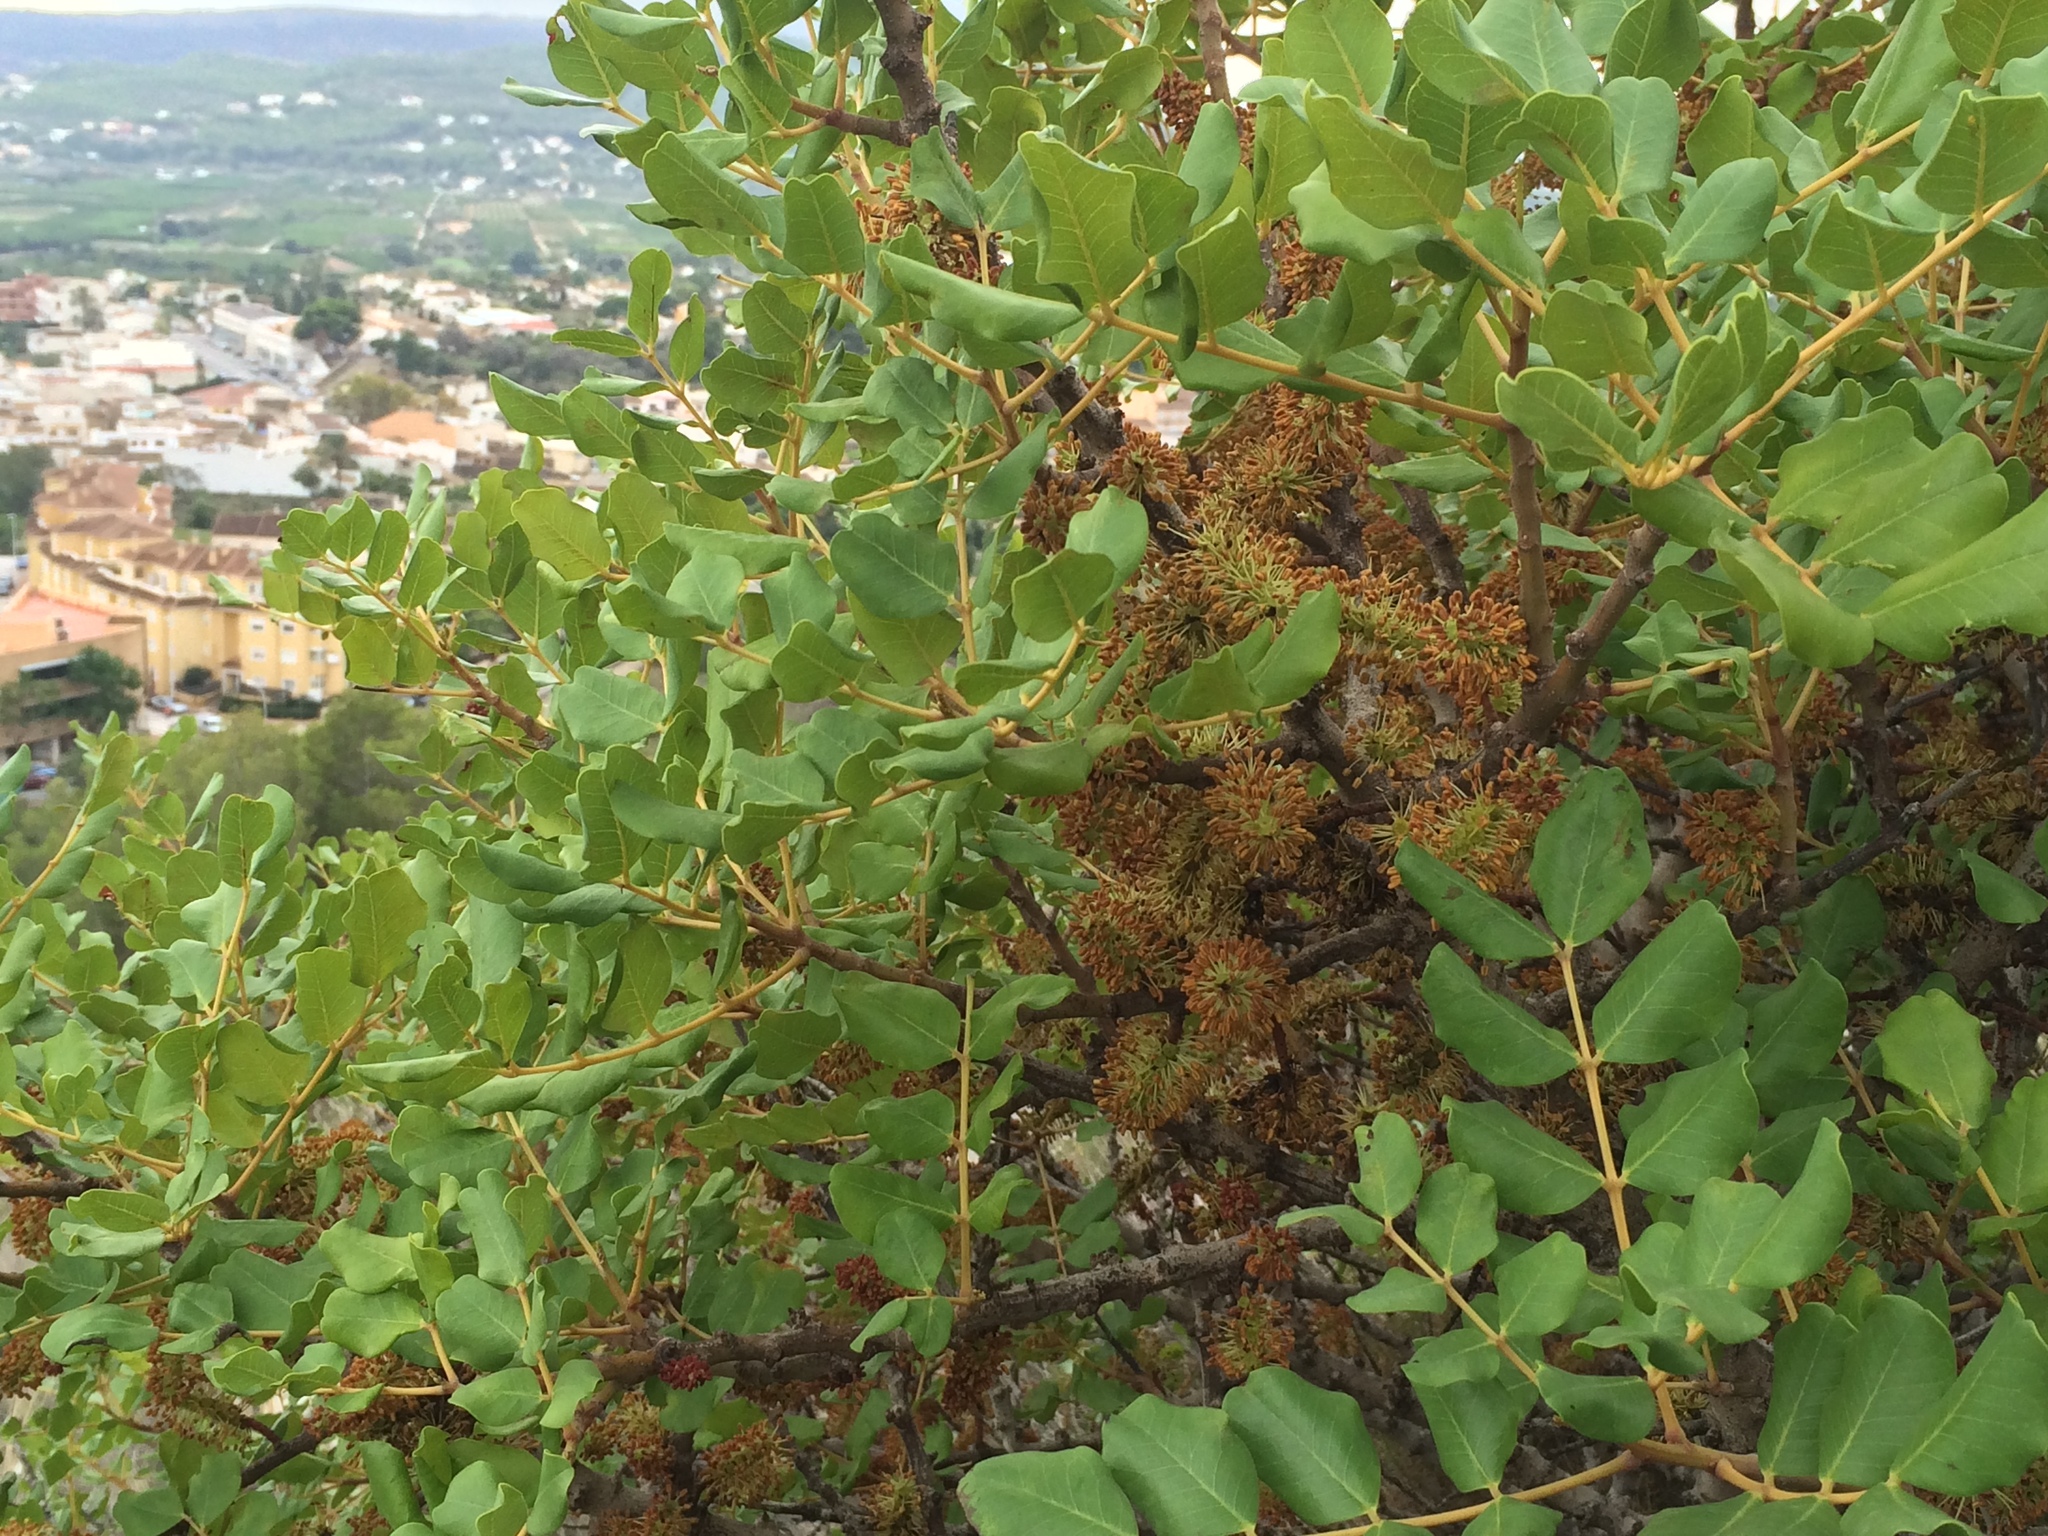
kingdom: Plantae
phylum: Tracheophyta
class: Magnoliopsida
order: Fabales
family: Fabaceae
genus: Ceratonia
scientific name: Ceratonia siliqua
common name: Carob
